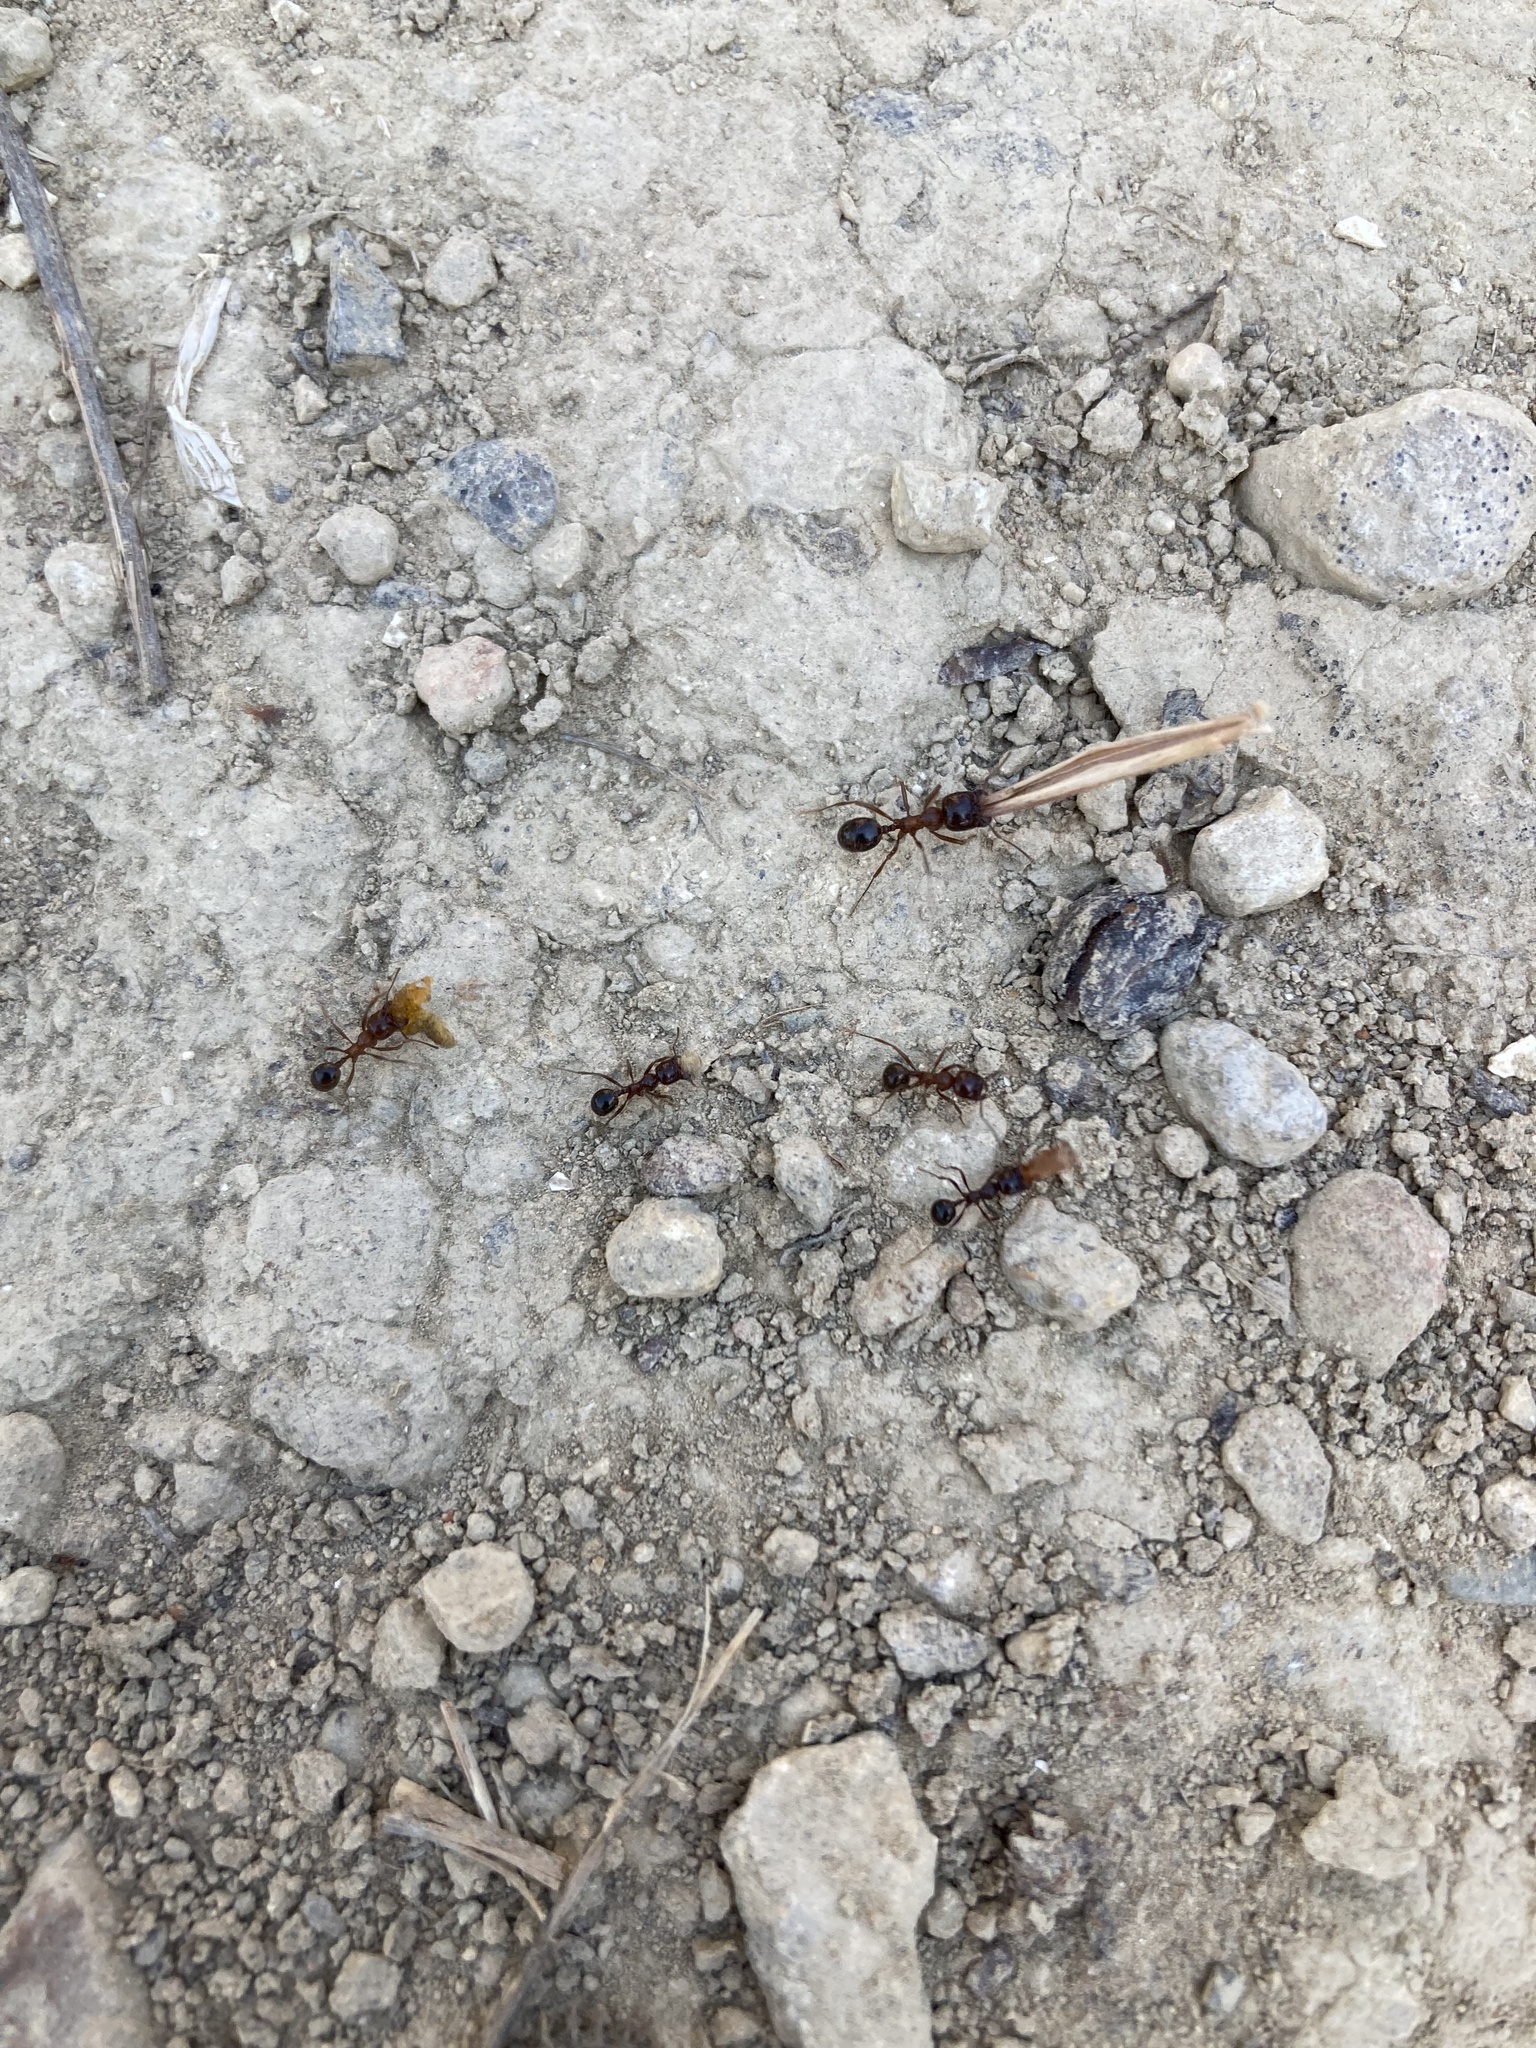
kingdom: Animalia
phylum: Arthropoda
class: Insecta
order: Hymenoptera
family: Formicidae
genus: Messor
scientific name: Messor wasmanni
